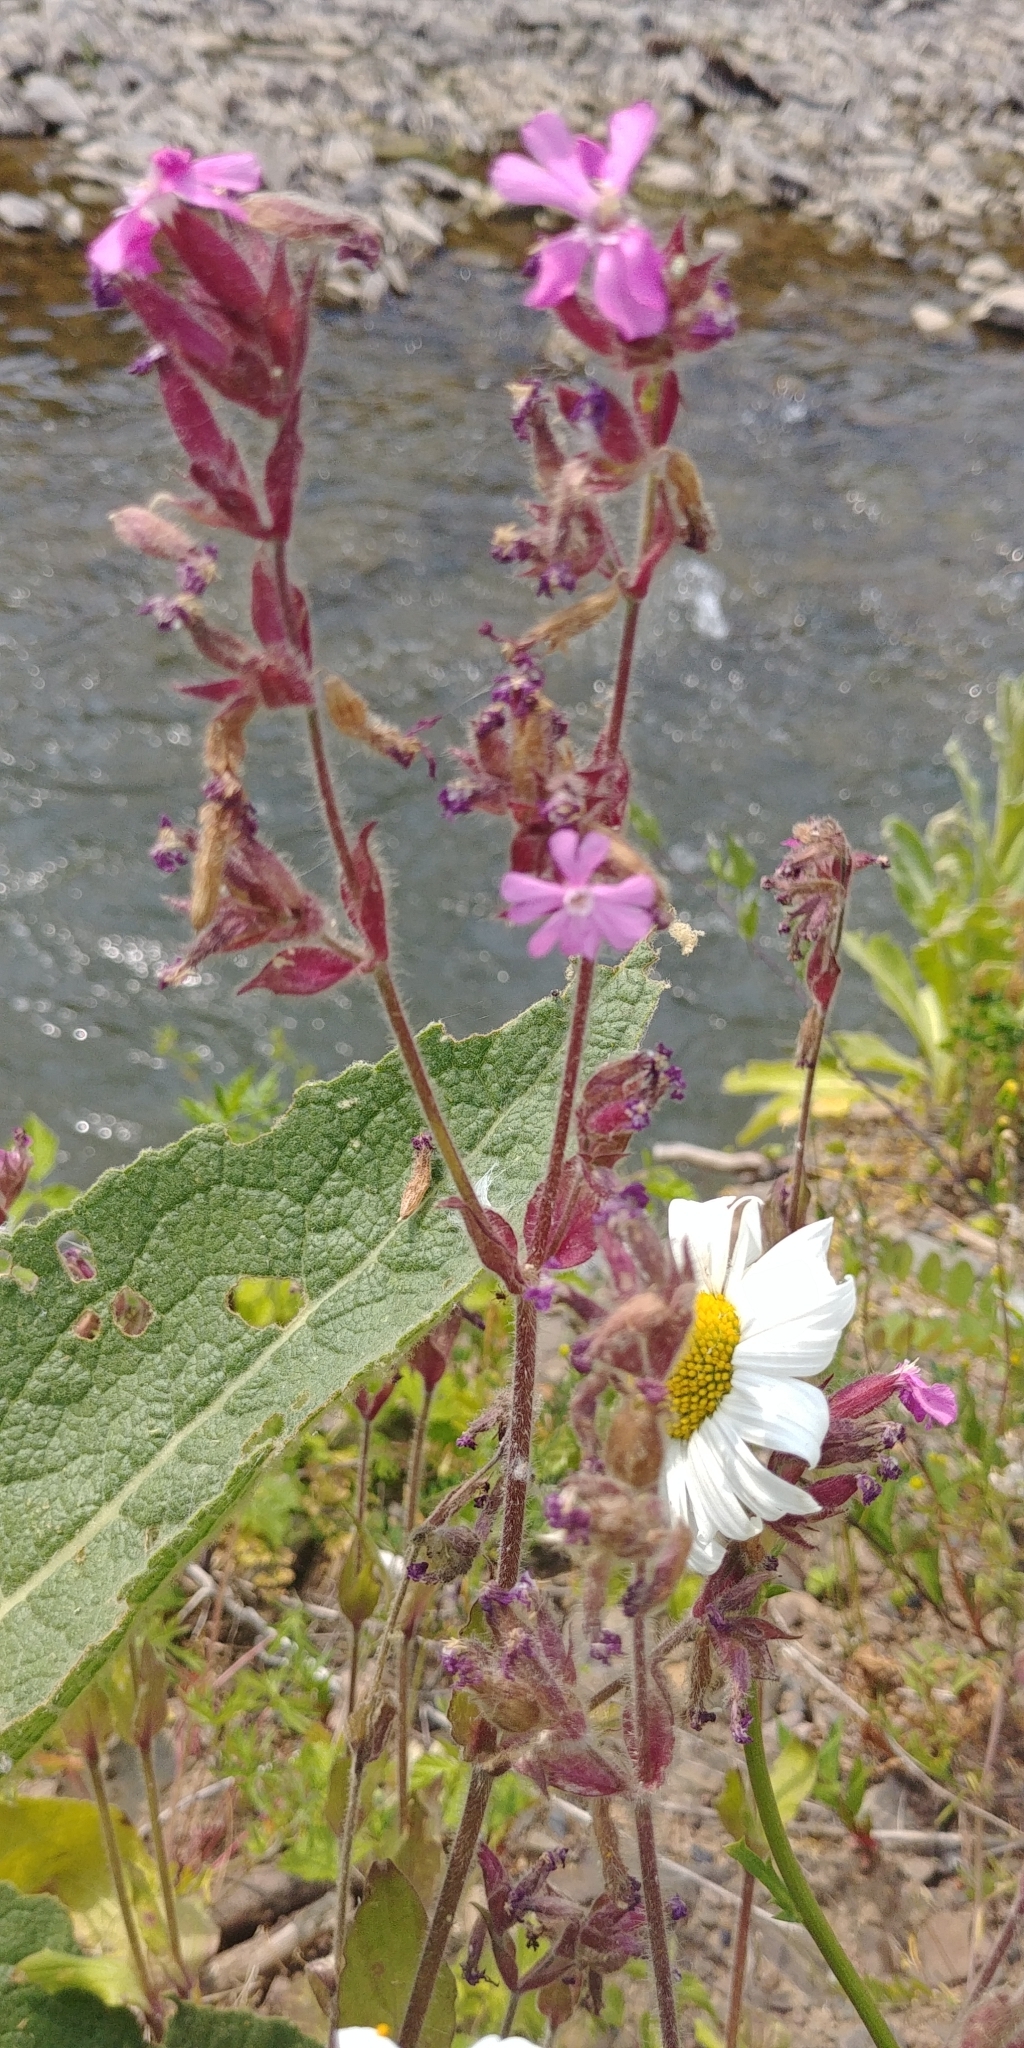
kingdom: Plantae
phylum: Tracheophyta
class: Magnoliopsida
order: Caryophyllales
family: Caryophyllaceae
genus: Silene
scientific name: Silene dioica
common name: Red campion
